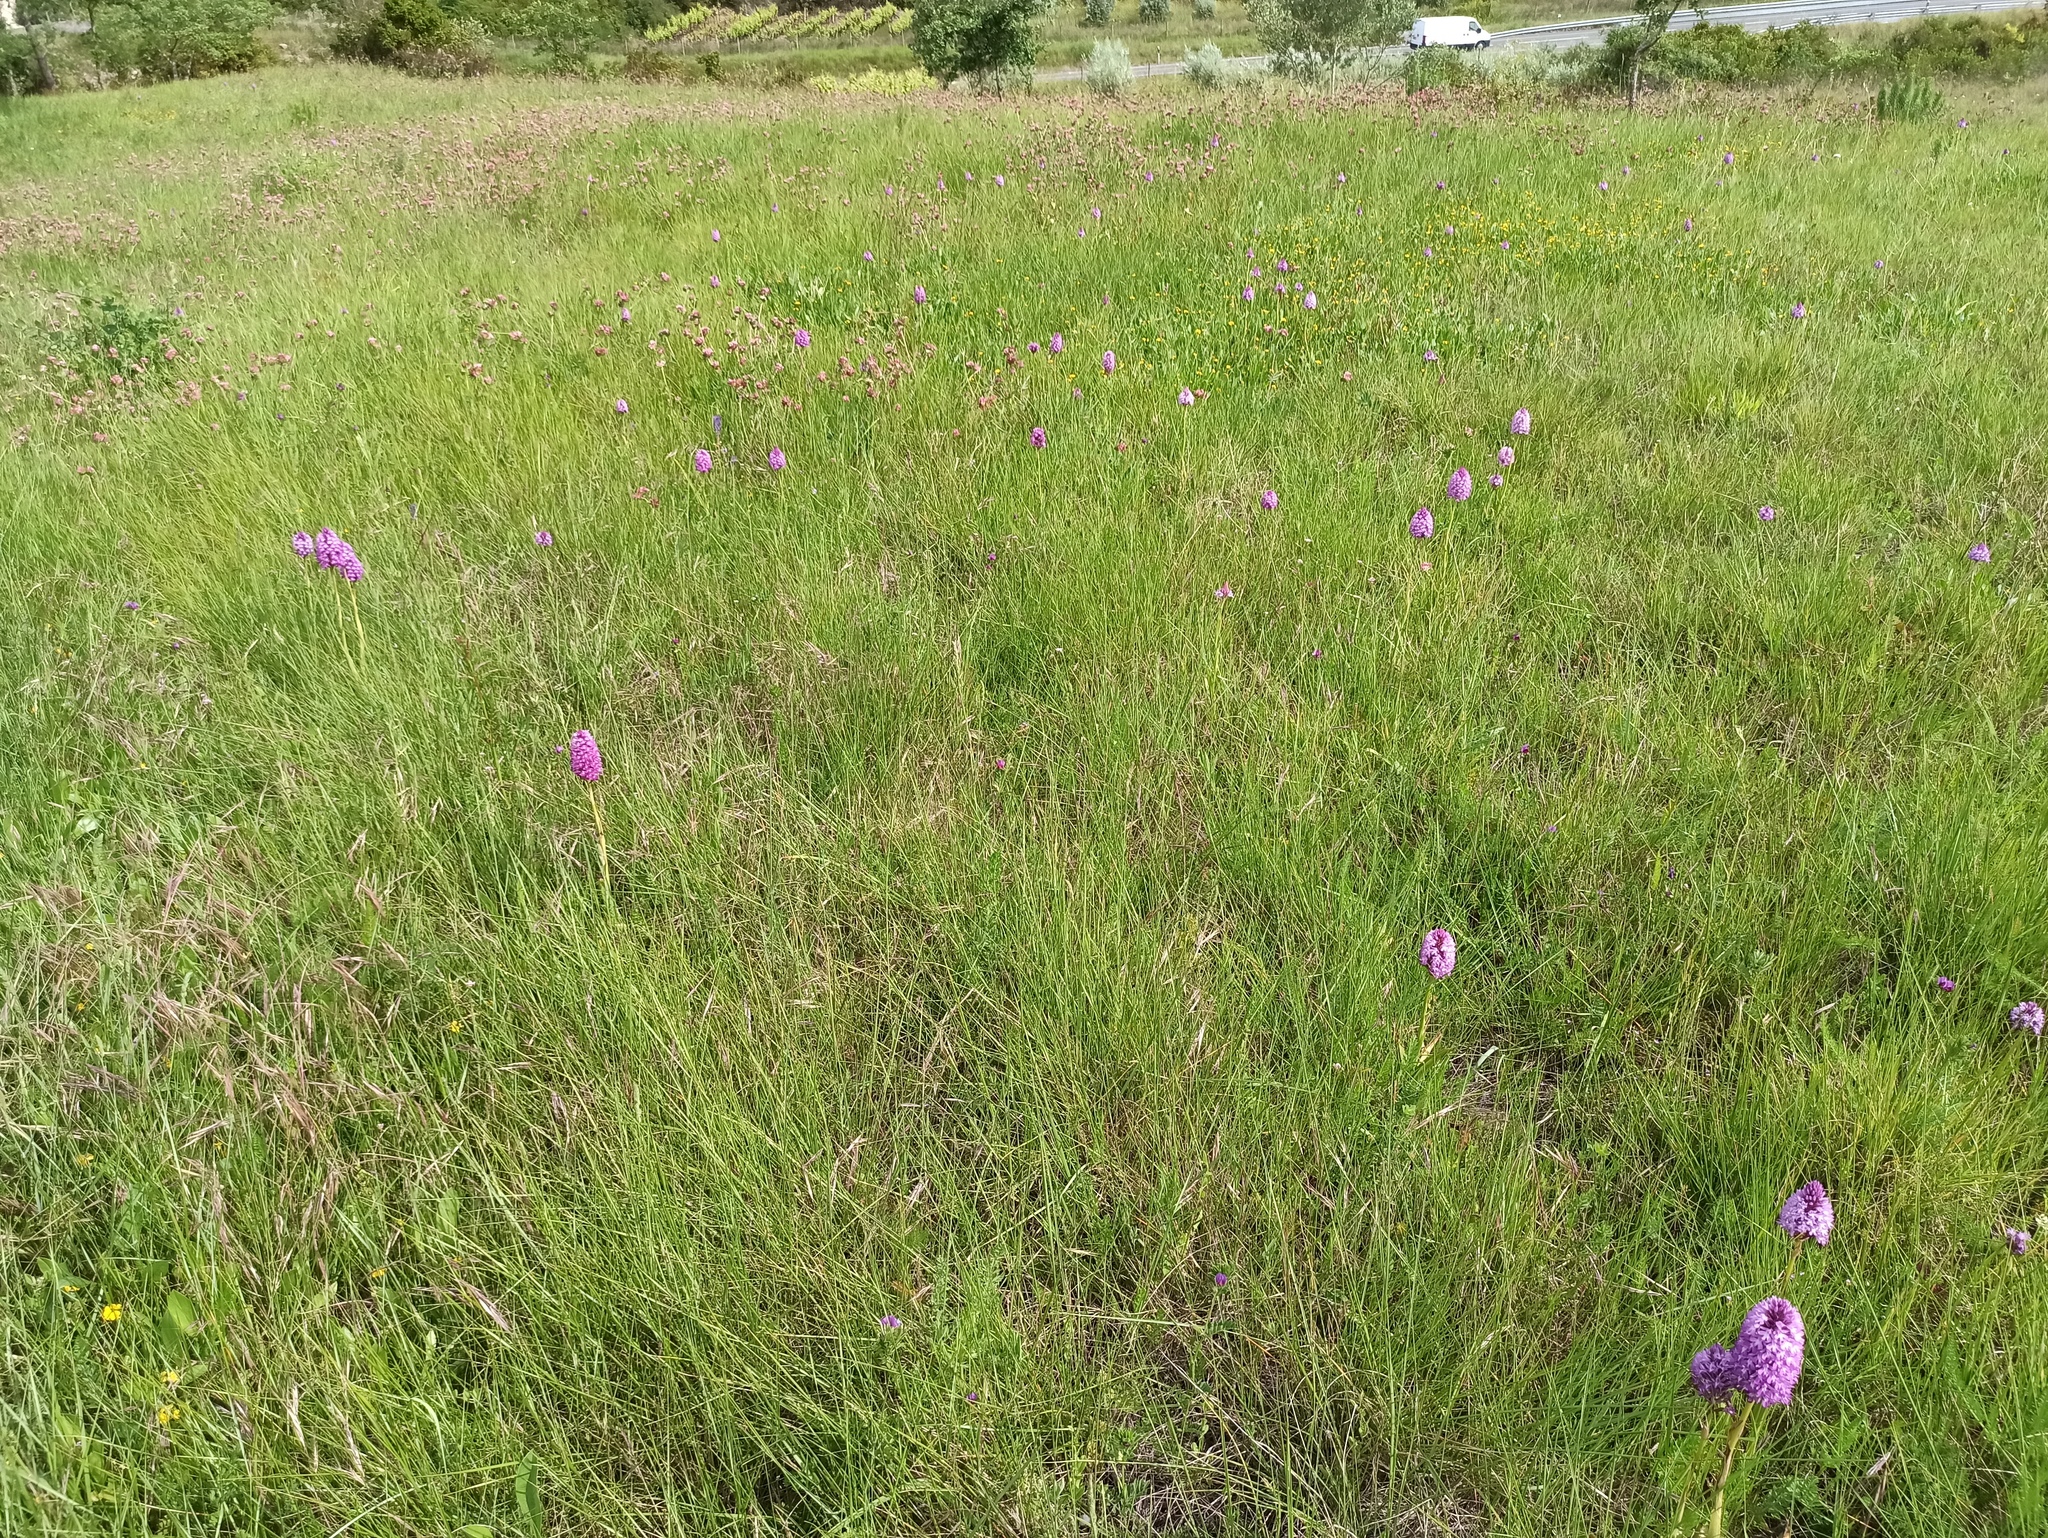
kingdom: Plantae
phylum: Tracheophyta
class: Liliopsida
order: Asparagales
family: Orchidaceae
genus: Anacamptis
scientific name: Anacamptis pyramidalis
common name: Pyramidal orchid
